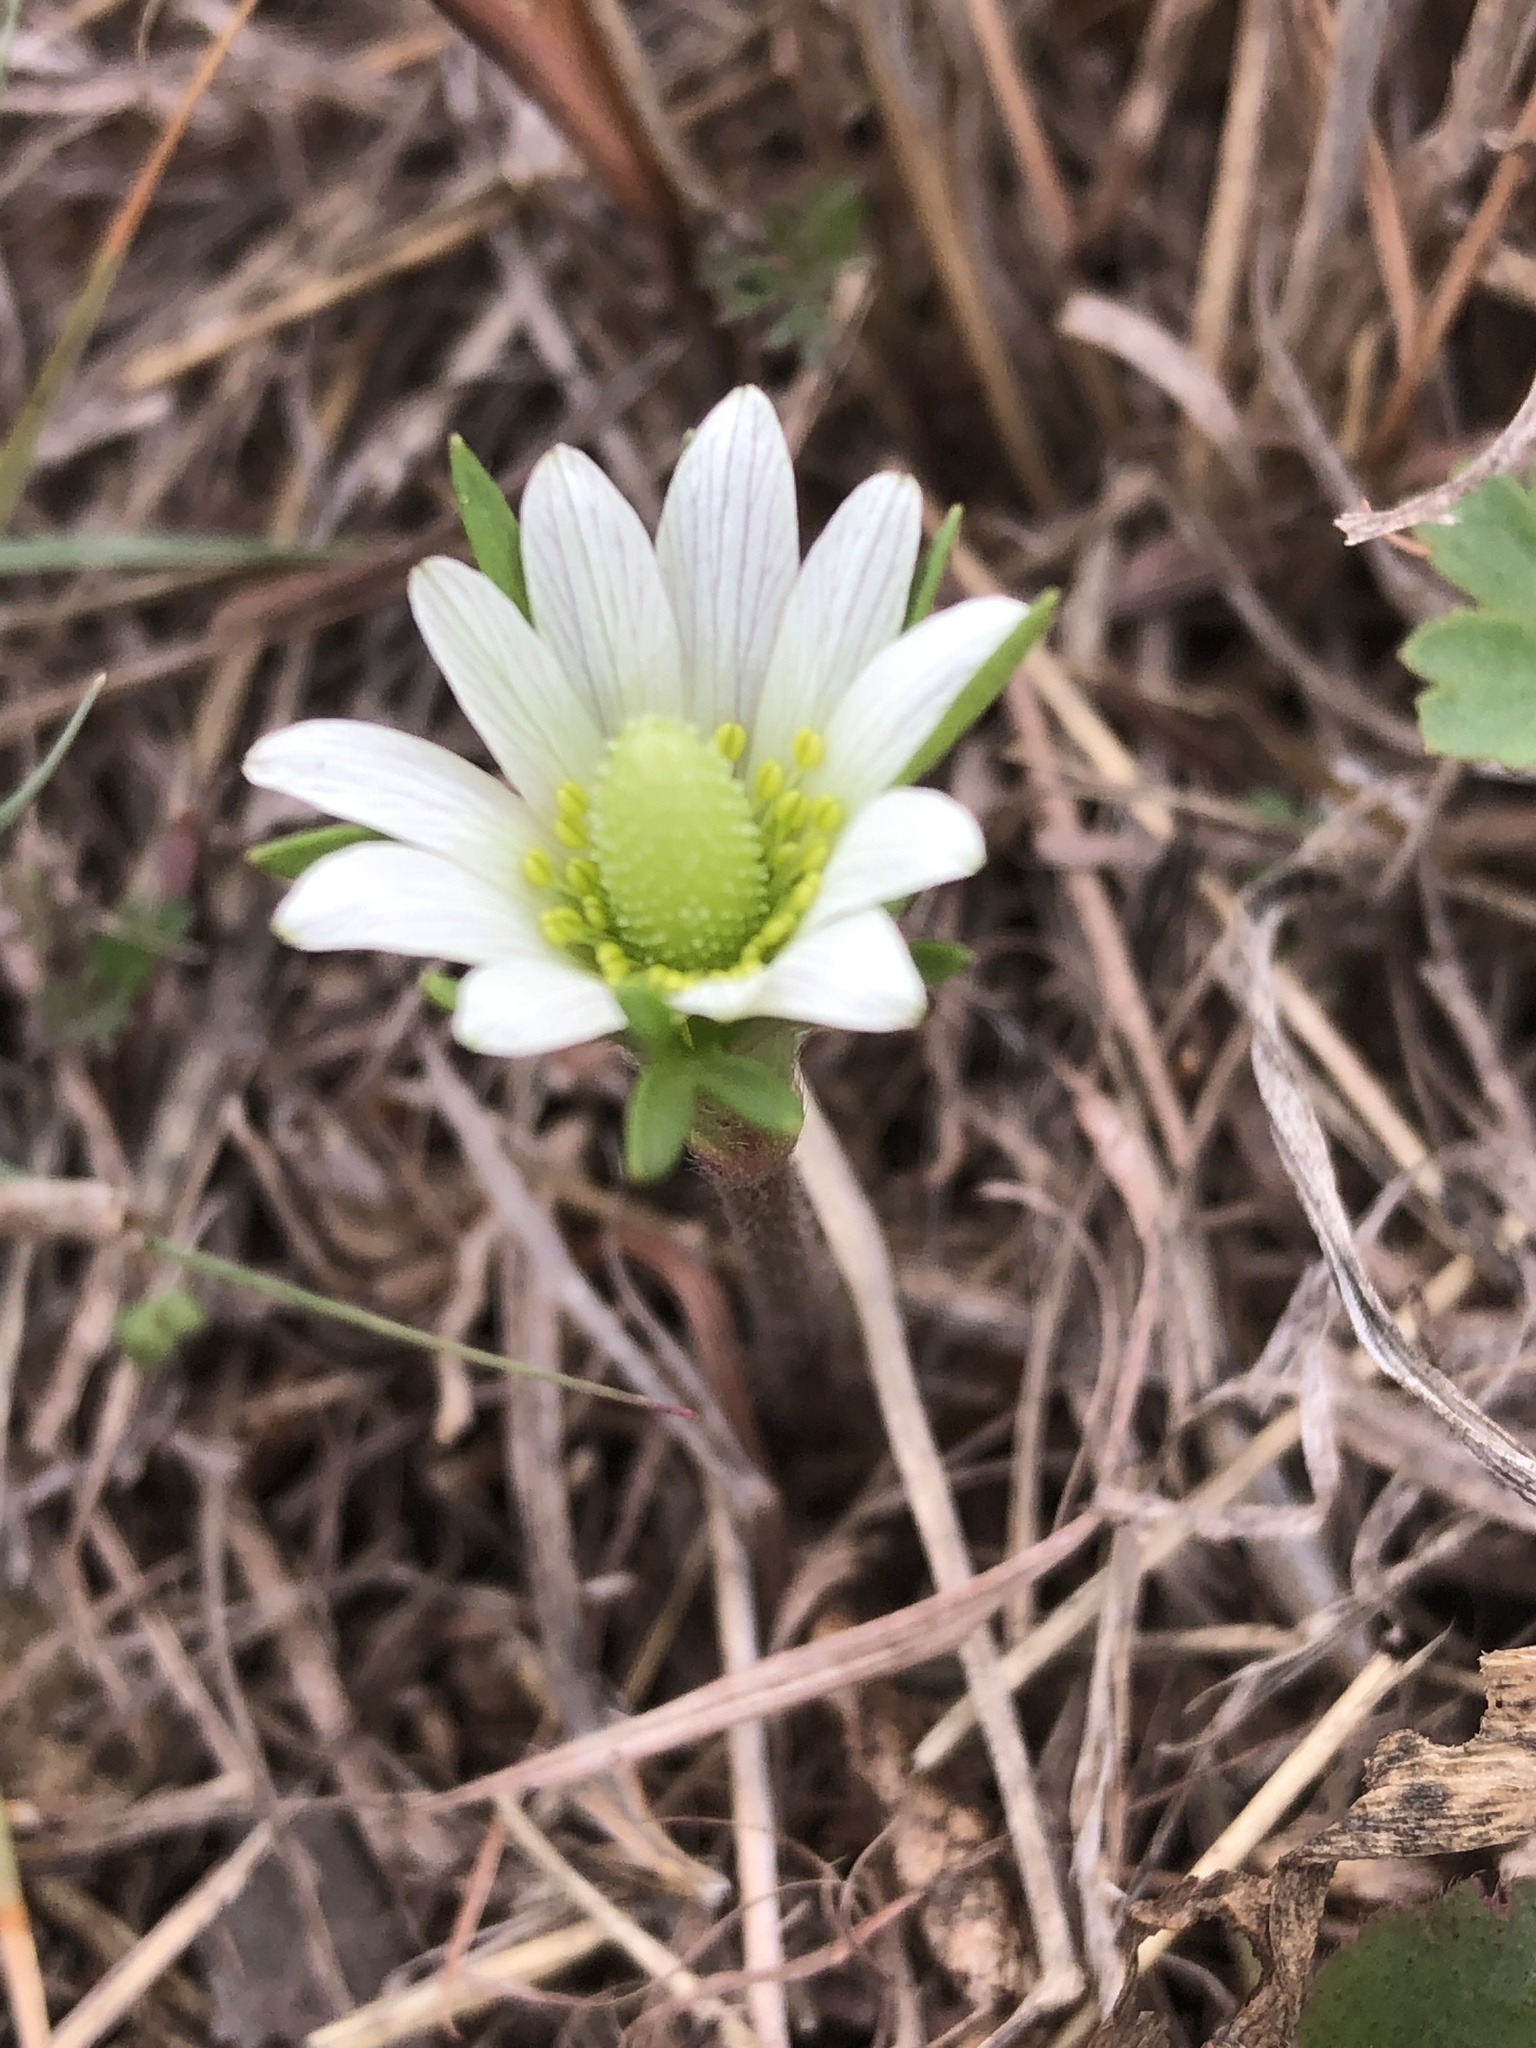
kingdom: Plantae
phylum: Tracheophyta
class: Magnoliopsida
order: Ranunculales
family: Ranunculaceae
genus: Anemone
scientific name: Anemone berlandieri
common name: Ten-petal anemone
